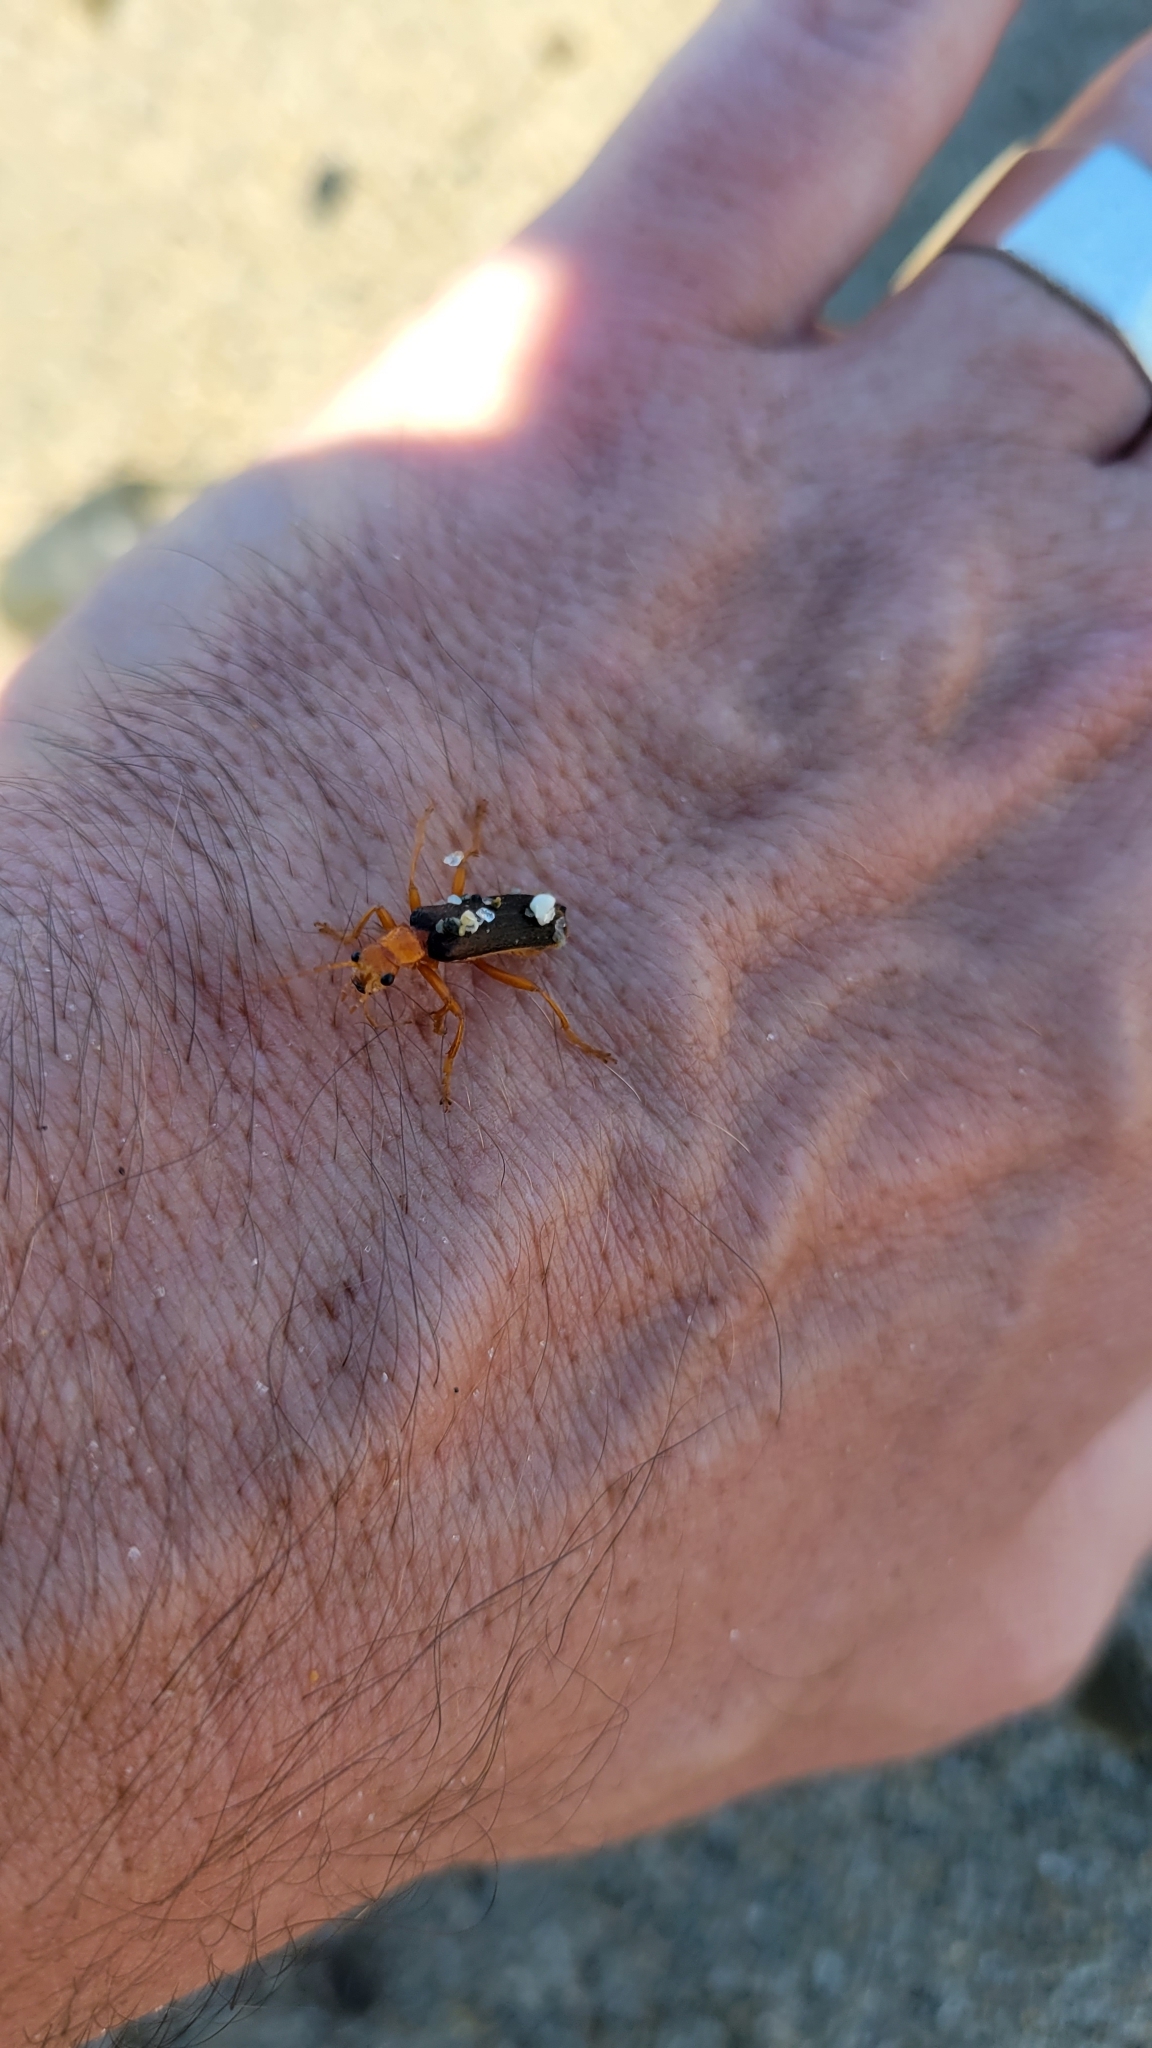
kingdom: Animalia
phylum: Arthropoda
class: Insecta
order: Coleoptera
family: Cantharidae
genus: Pacificanthia
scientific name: Pacificanthia rotundicollis
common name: Brown leatherwing beetle
